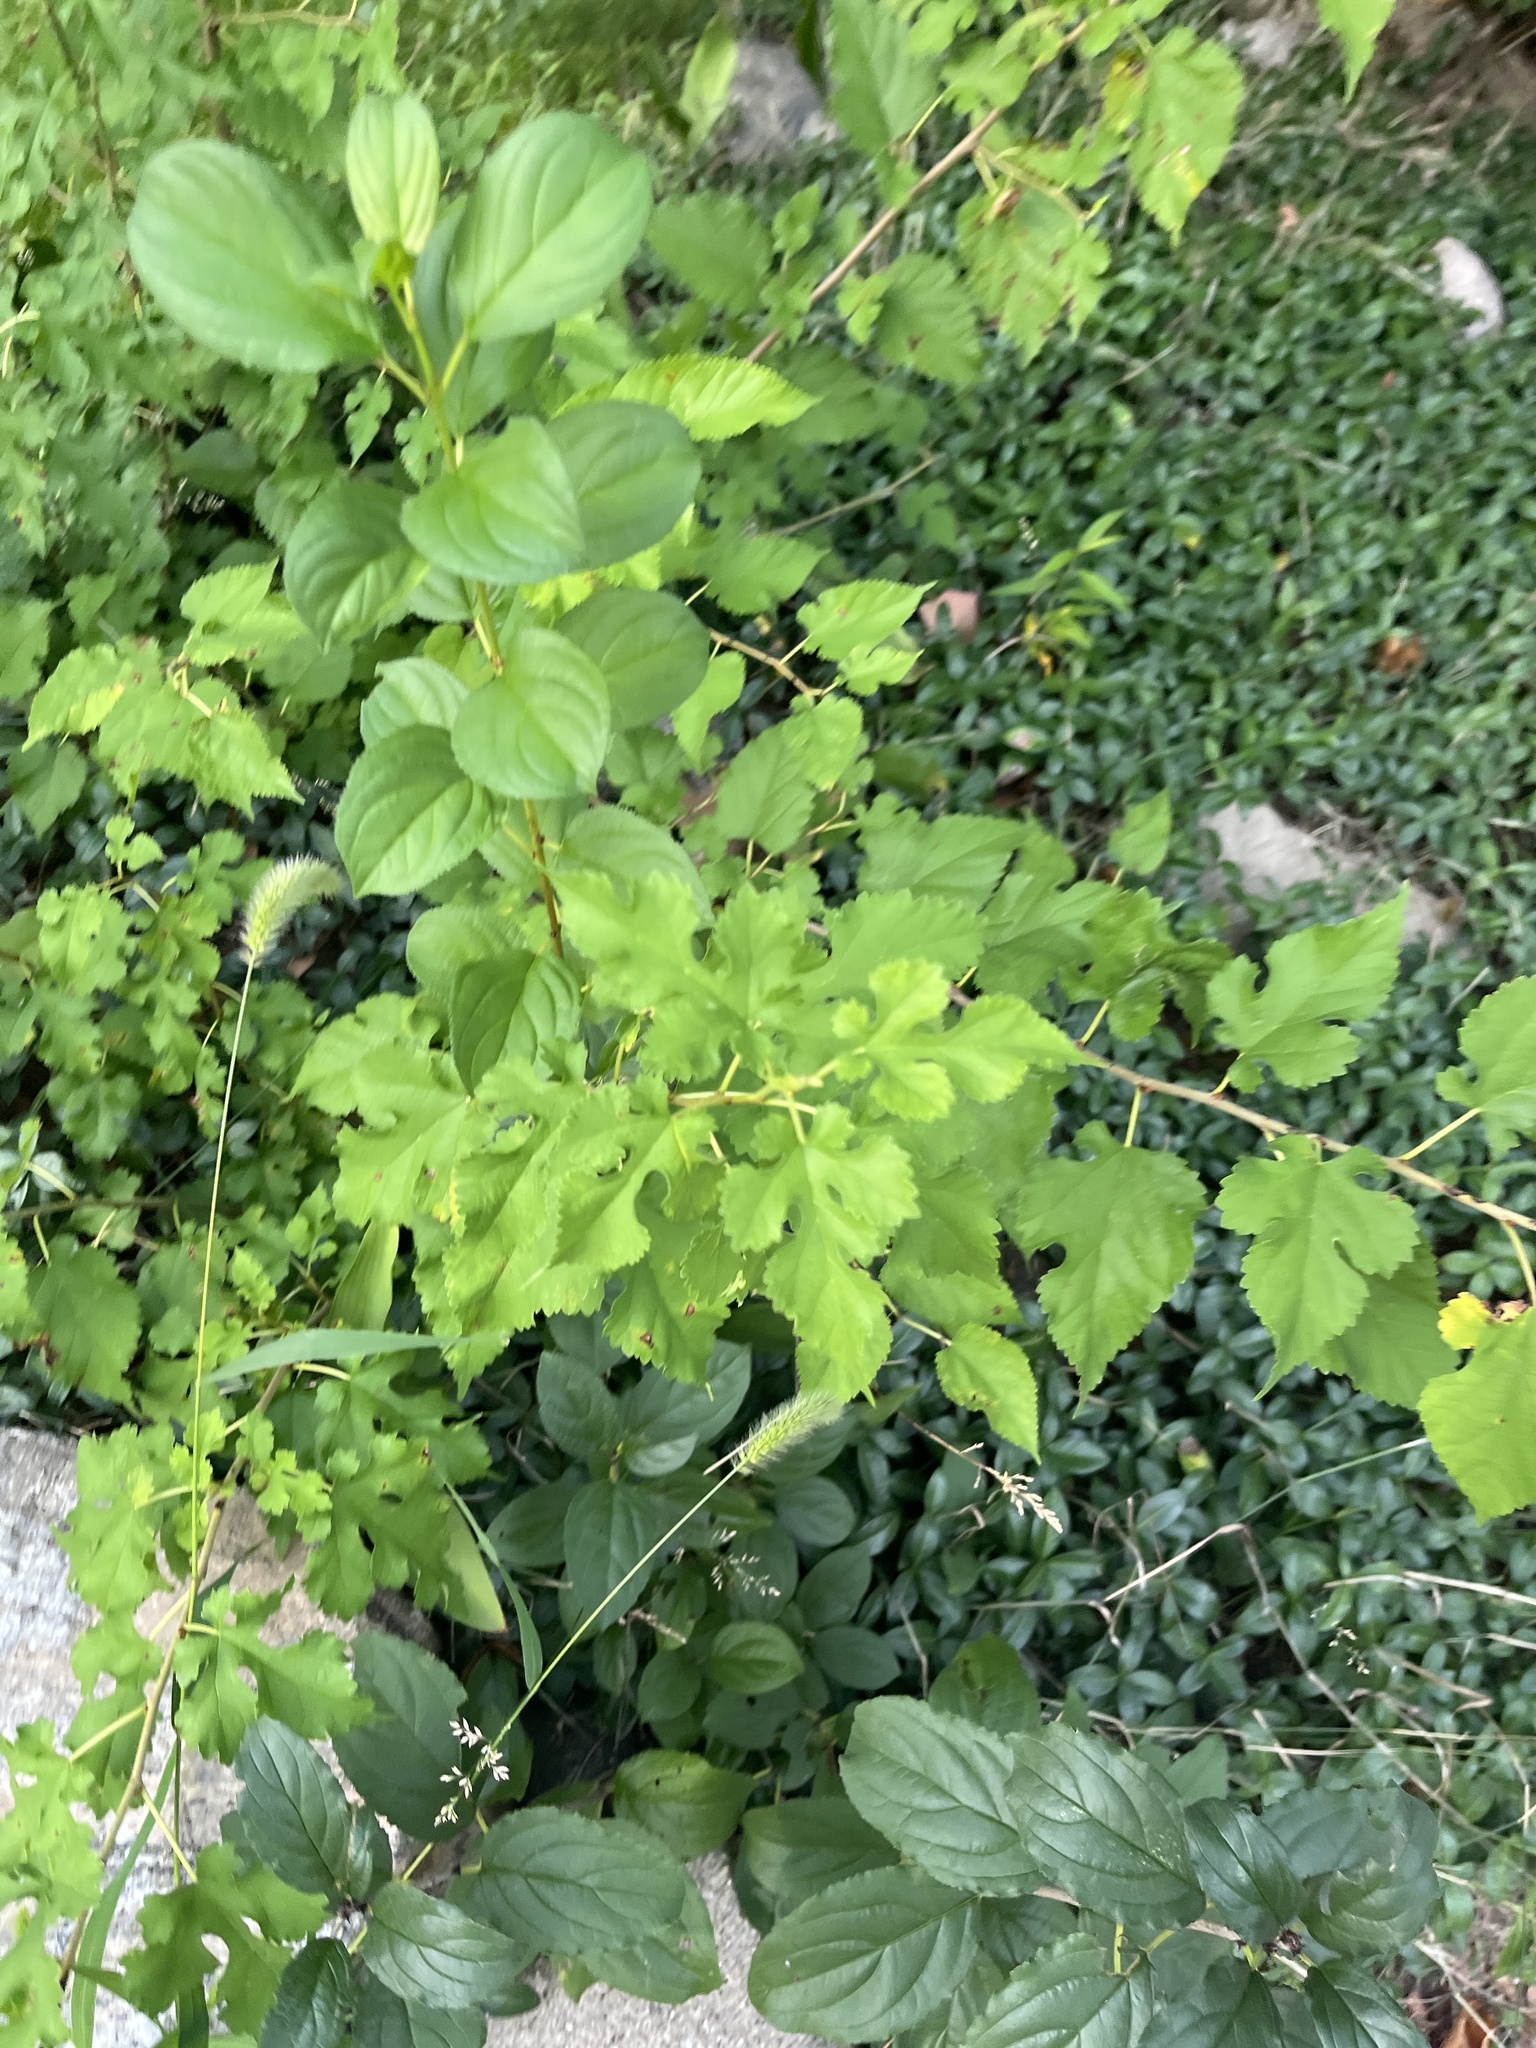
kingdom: Plantae
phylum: Tracheophyta
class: Magnoliopsida
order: Rosales
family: Moraceae
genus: Morus
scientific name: Morus alba
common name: White mulberry
